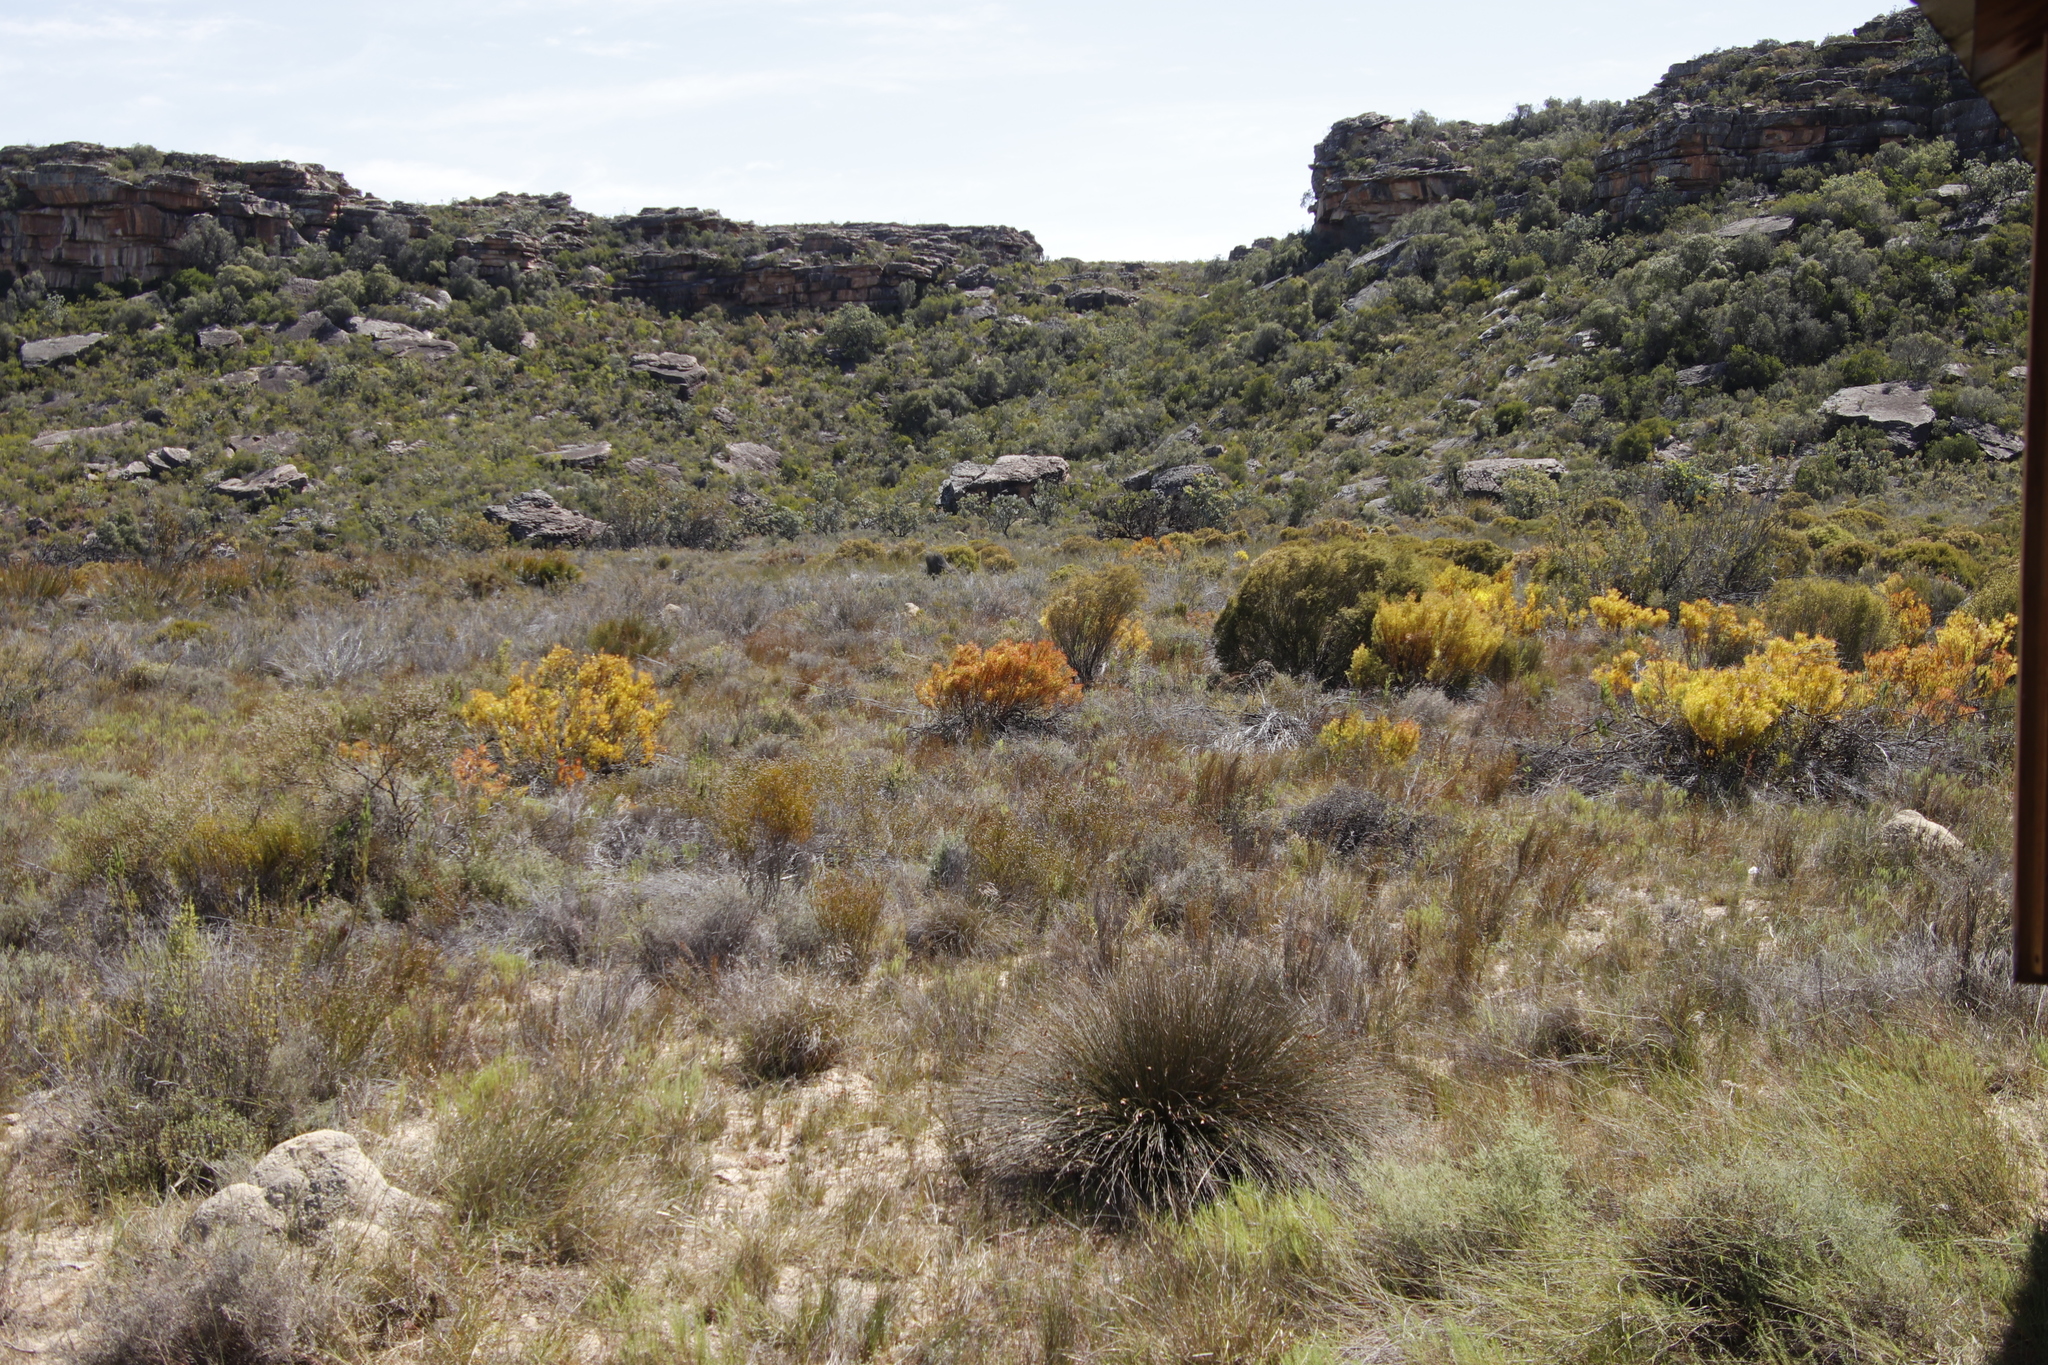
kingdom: Plantae
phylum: Tracheophyta
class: Magnoliopsida
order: Proteales
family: Proteaceae
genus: Leucadendron
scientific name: Leucadendron salignum
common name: Common sunshine conebush
